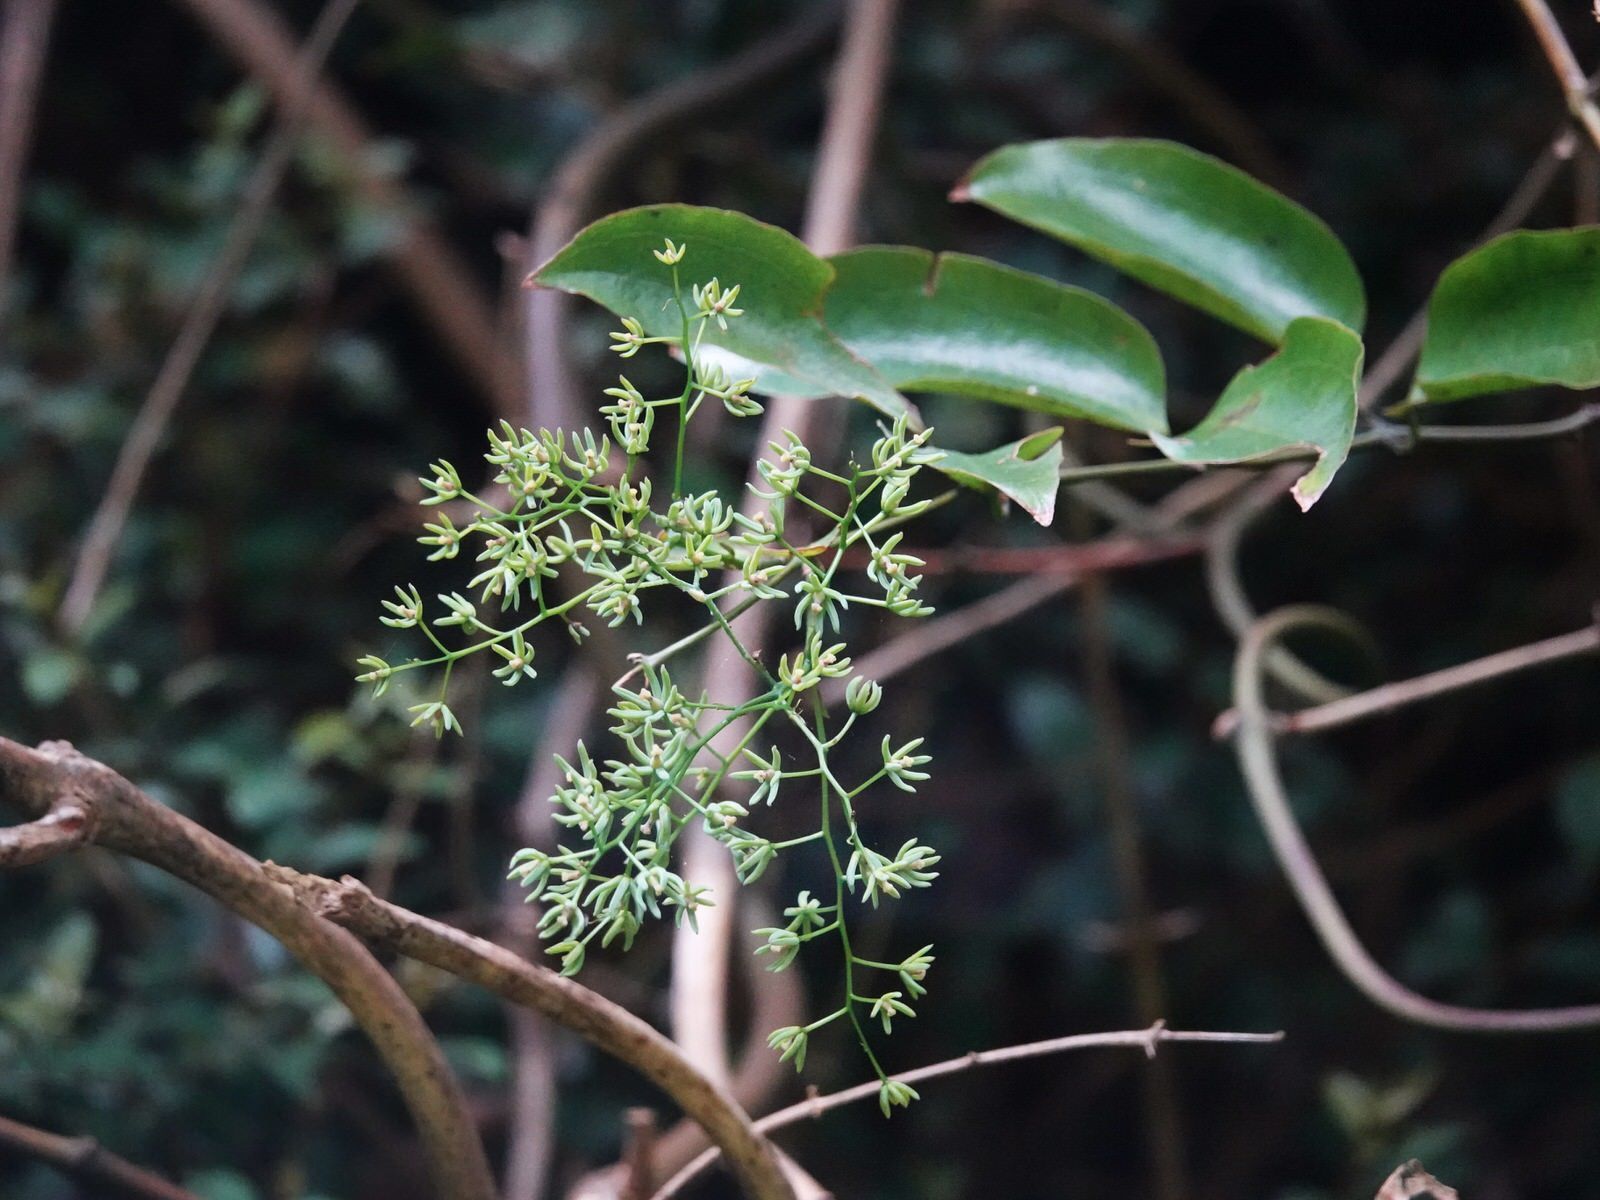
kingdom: Plantae
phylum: Tracheophyta
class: Liliopsida
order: Liliales
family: Ripogonaceae
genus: Ripogonum
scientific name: Ripogonum scandens
